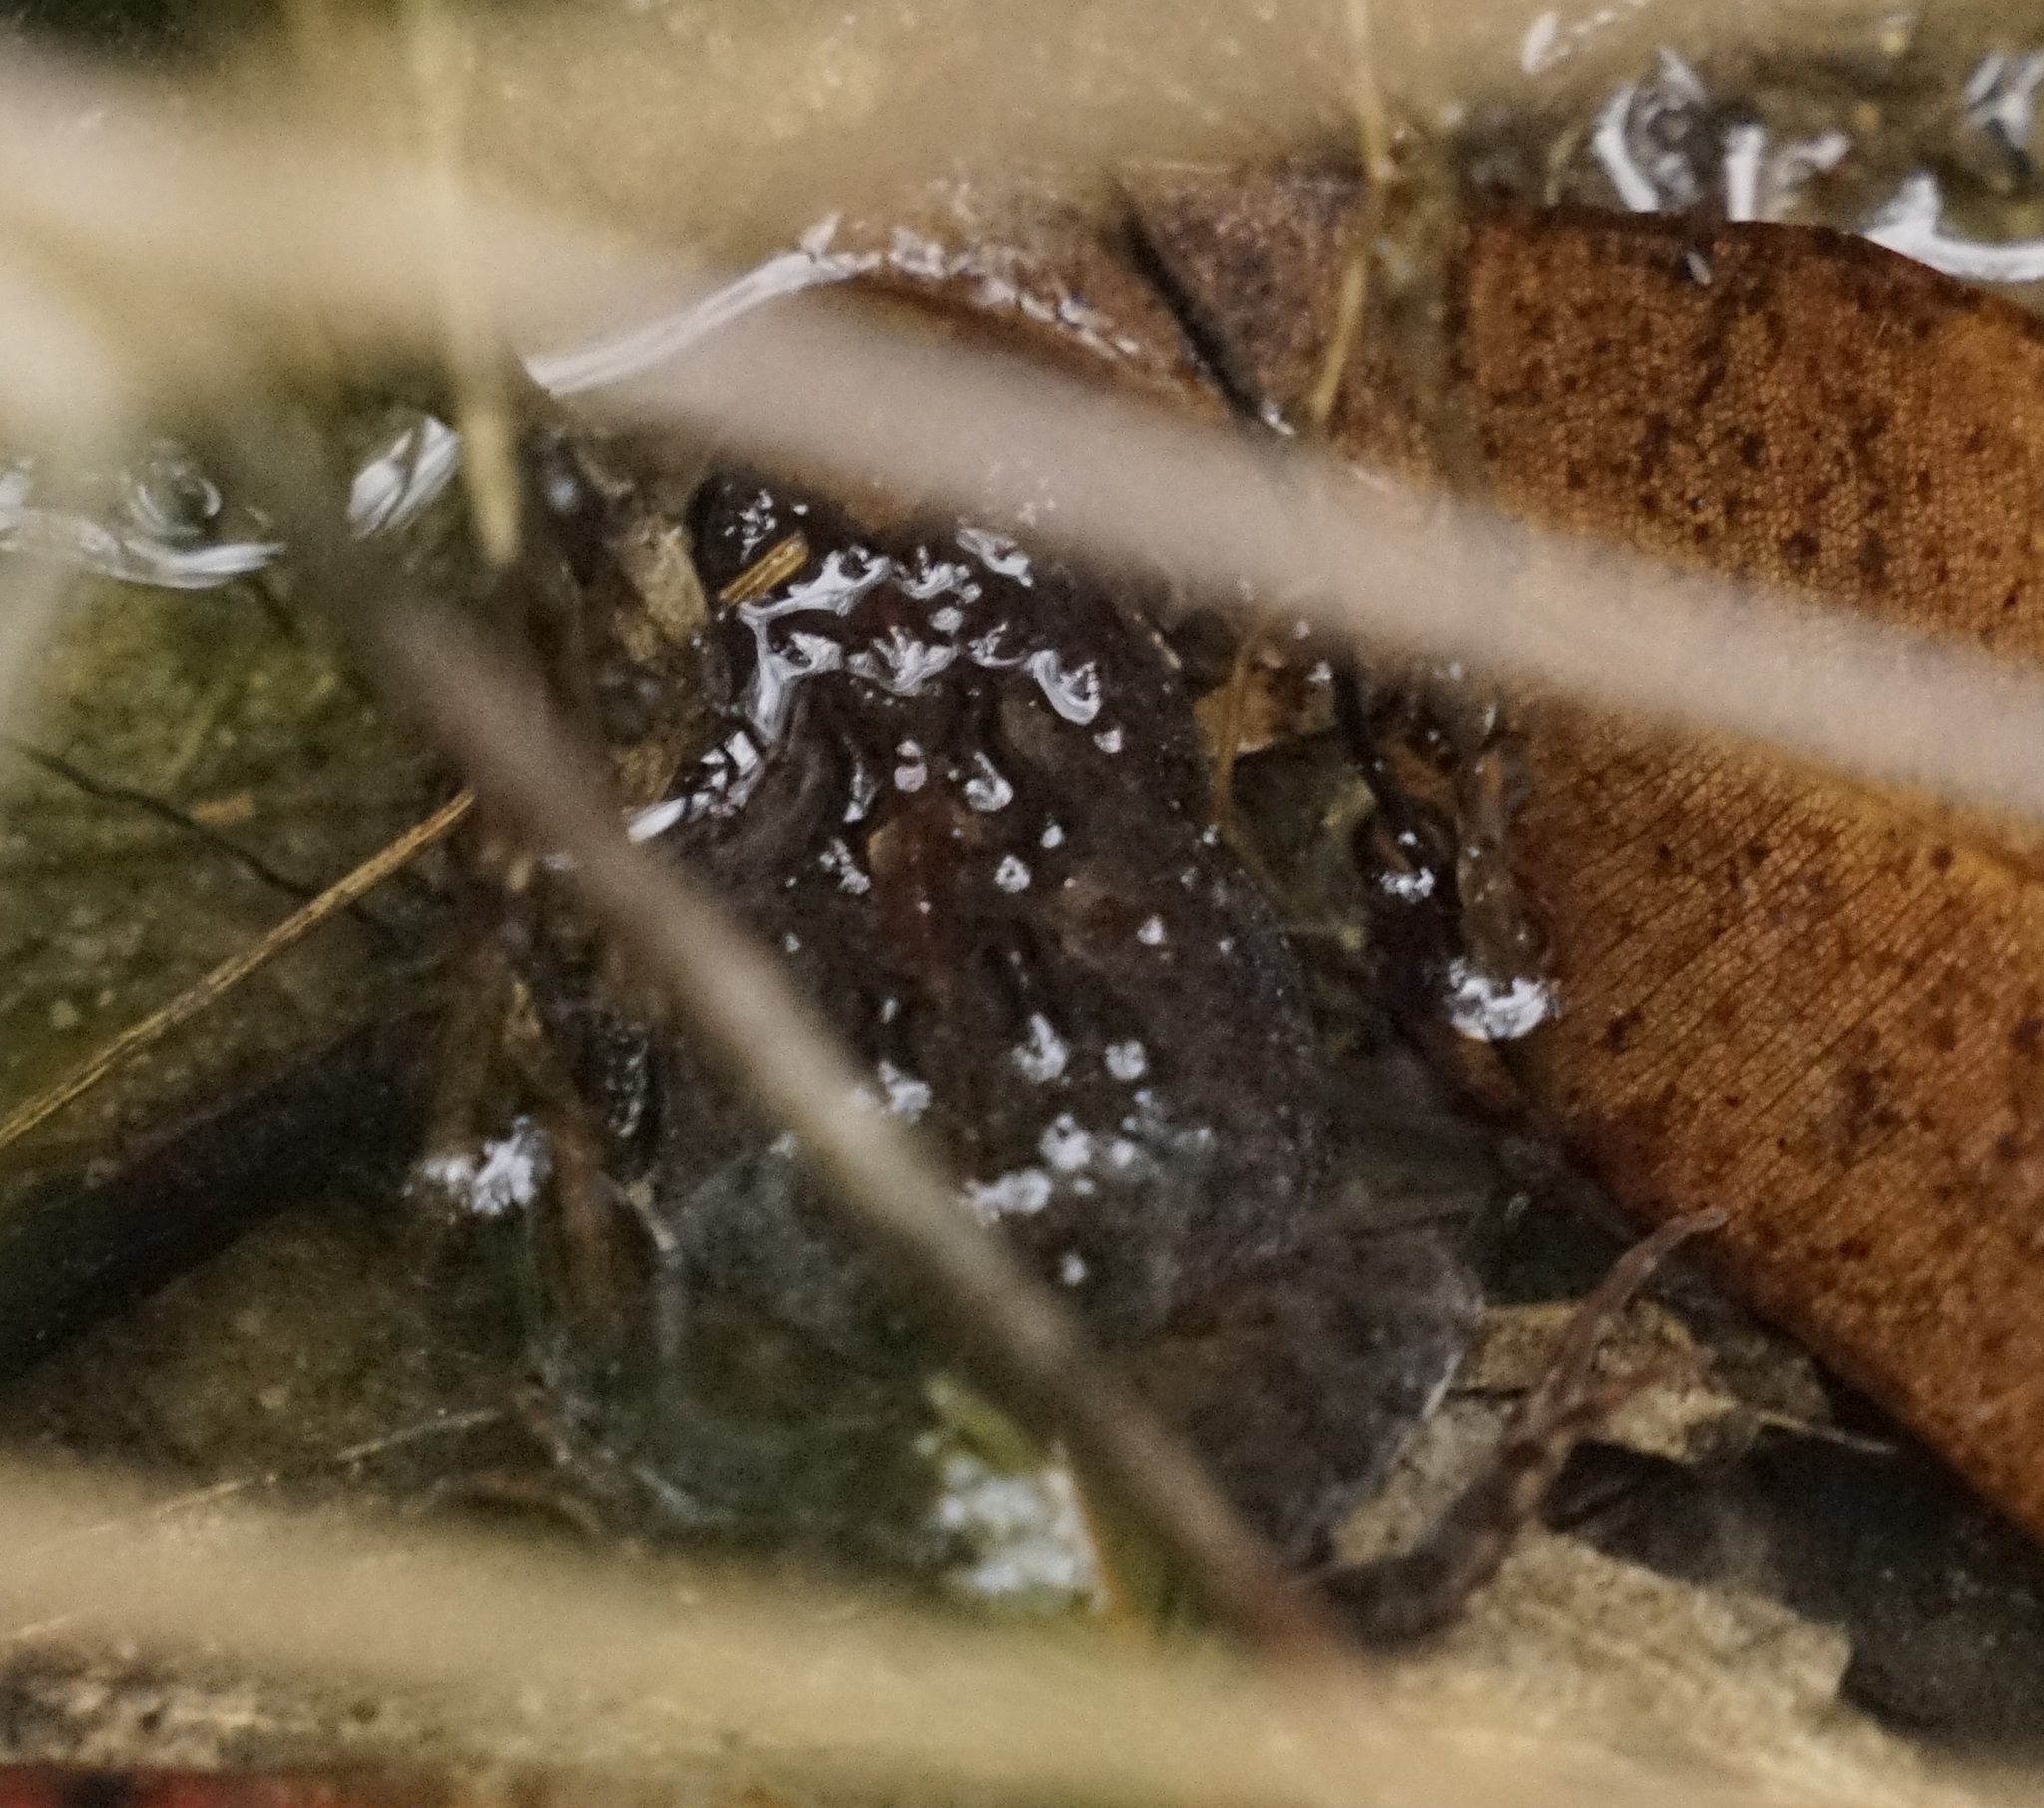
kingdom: Animalia
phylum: Chordata
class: Amphibia
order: Anura
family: Myobatrachidae
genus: Crinia
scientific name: Crinia signifera
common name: Brown froglet
